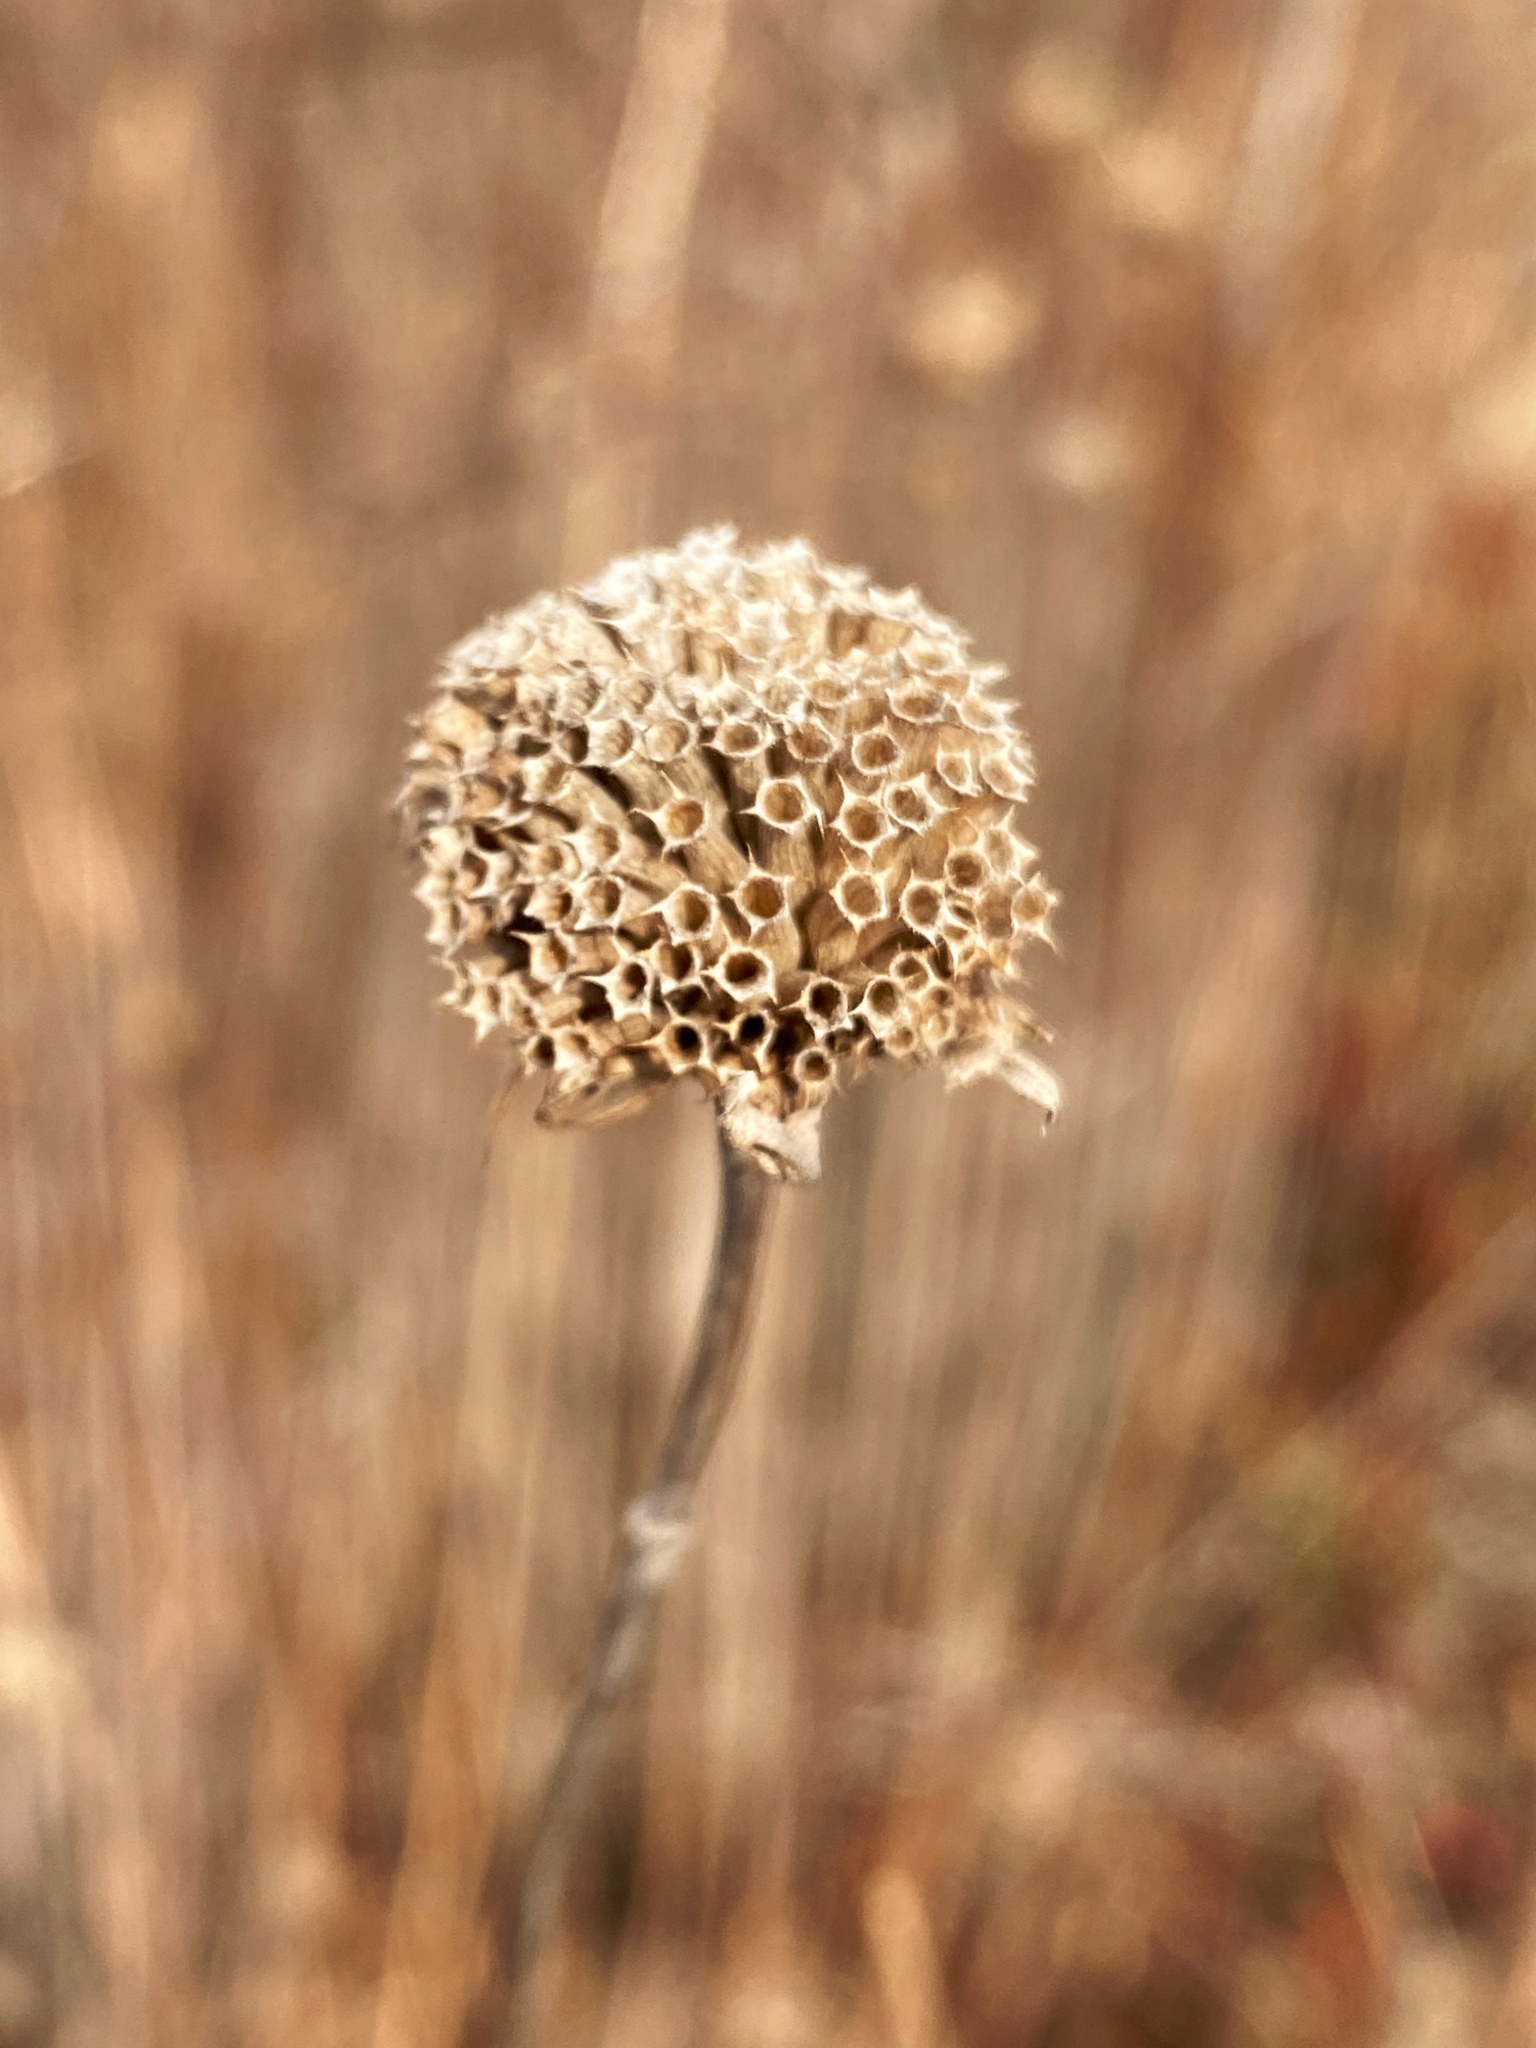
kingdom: Plantae
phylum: Tracheophyta
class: Magnoliopsida
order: Lamiales
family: Lamiaceae
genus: Monarda
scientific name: Monarda fistulosa
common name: Purple beebalm
